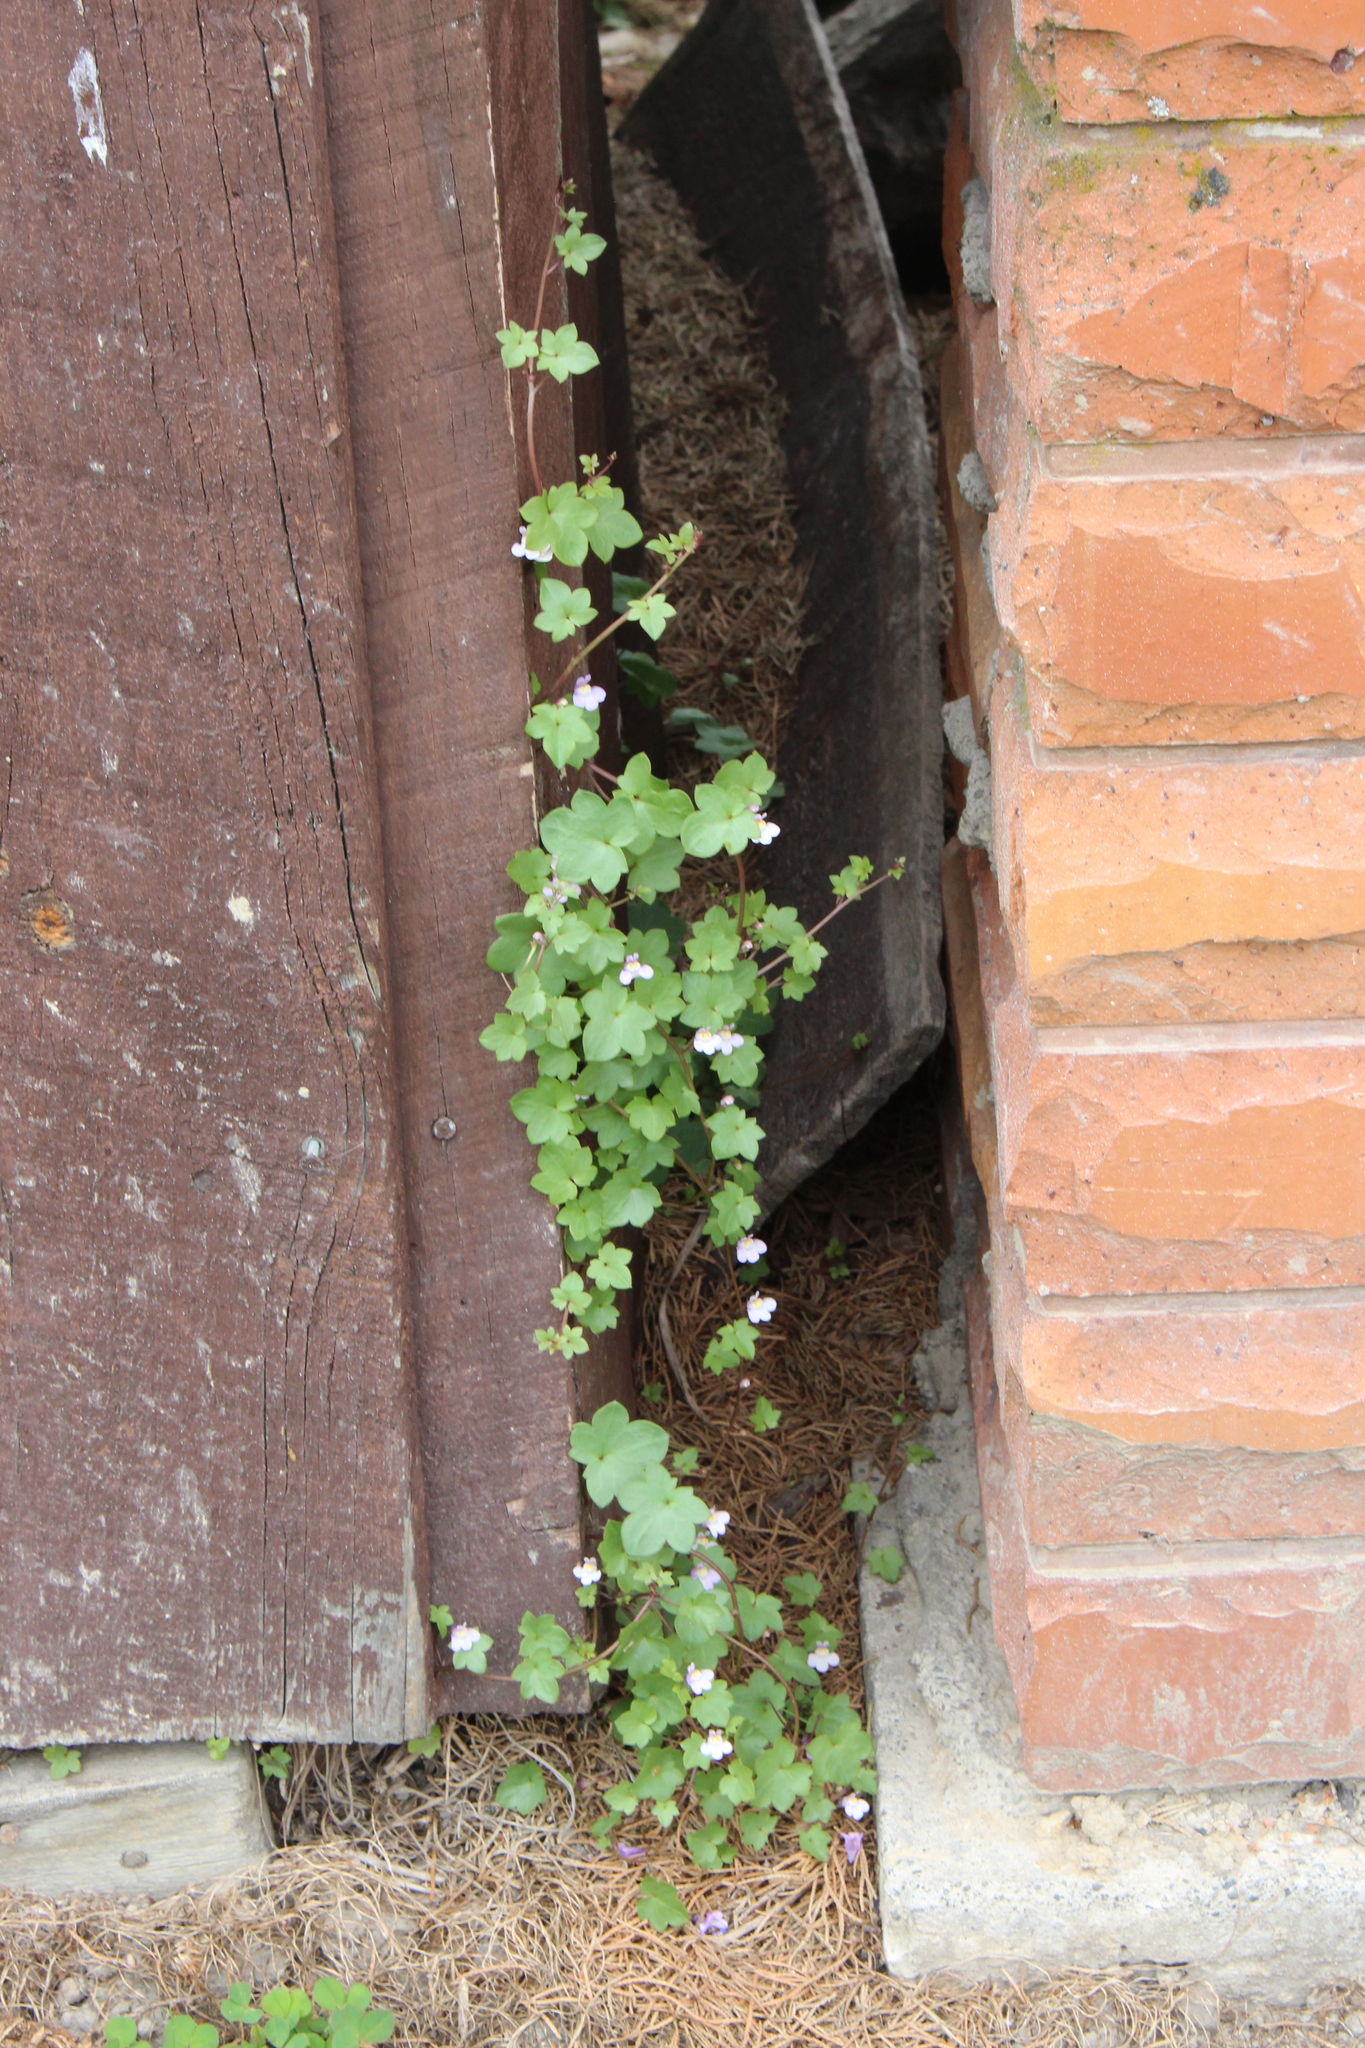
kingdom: Plantae
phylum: Tracheophyta
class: Magnoliopsida
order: Lamiales
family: Plantaginaceae
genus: Cymbalaria
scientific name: Cymbalaria muralis
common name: Ivy-leaved toadflax
